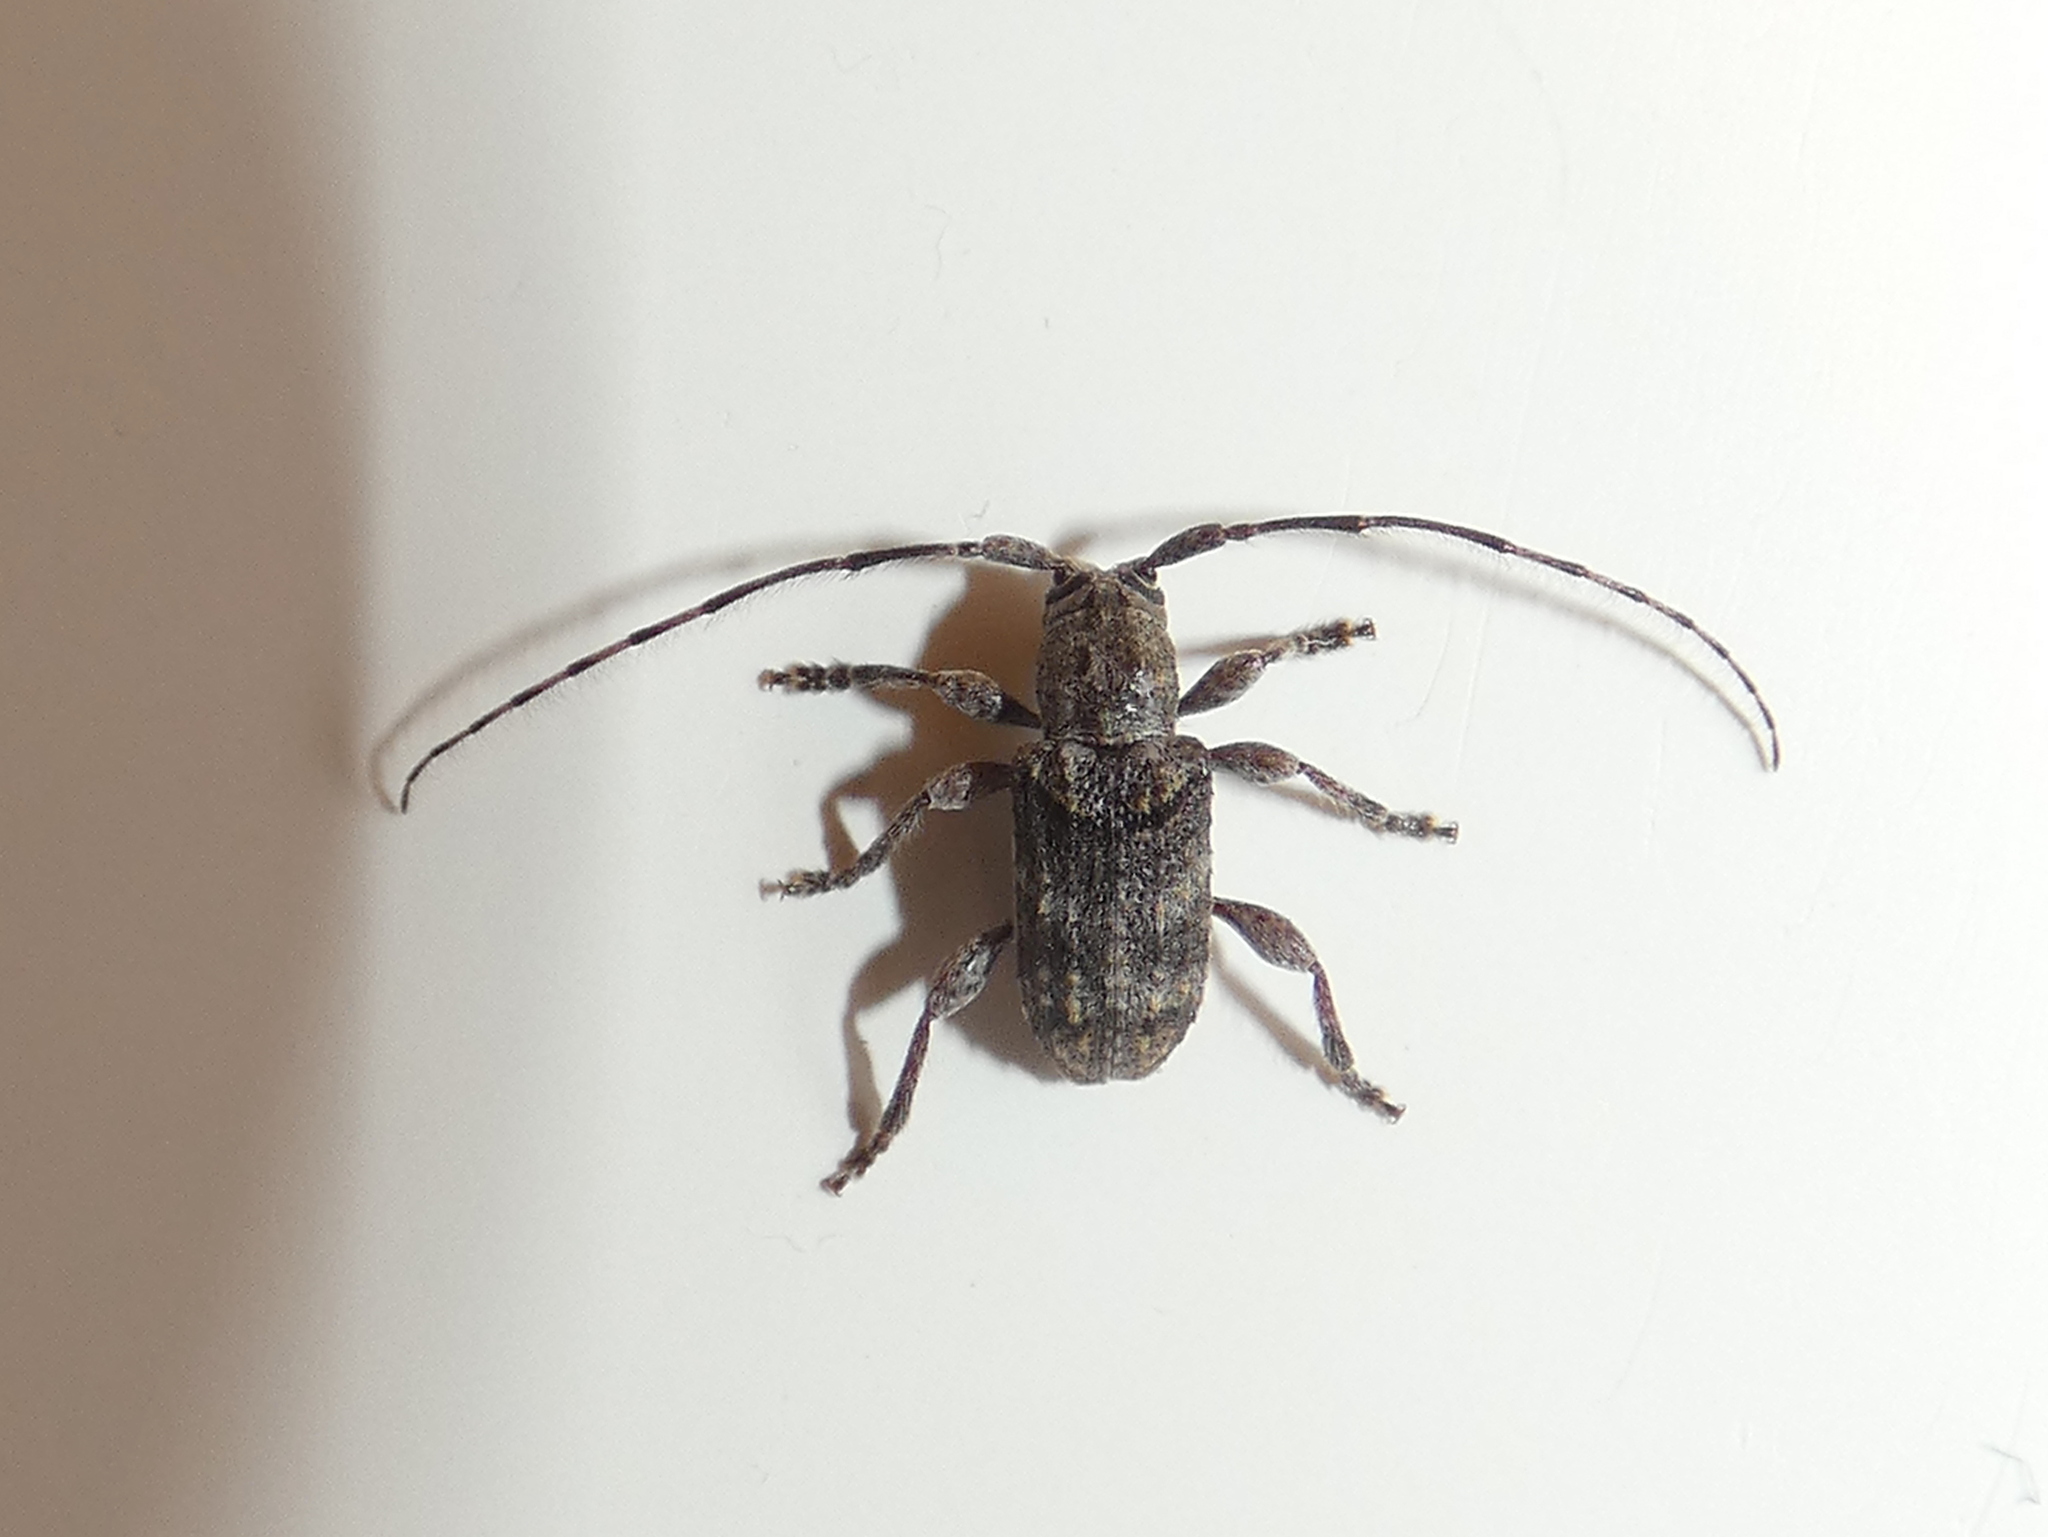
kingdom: Animalia
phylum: Arthropoda
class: Insecta
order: Coleoptera
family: Cerambycidae
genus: Ecyrus
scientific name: Ecyrus dasycerus
